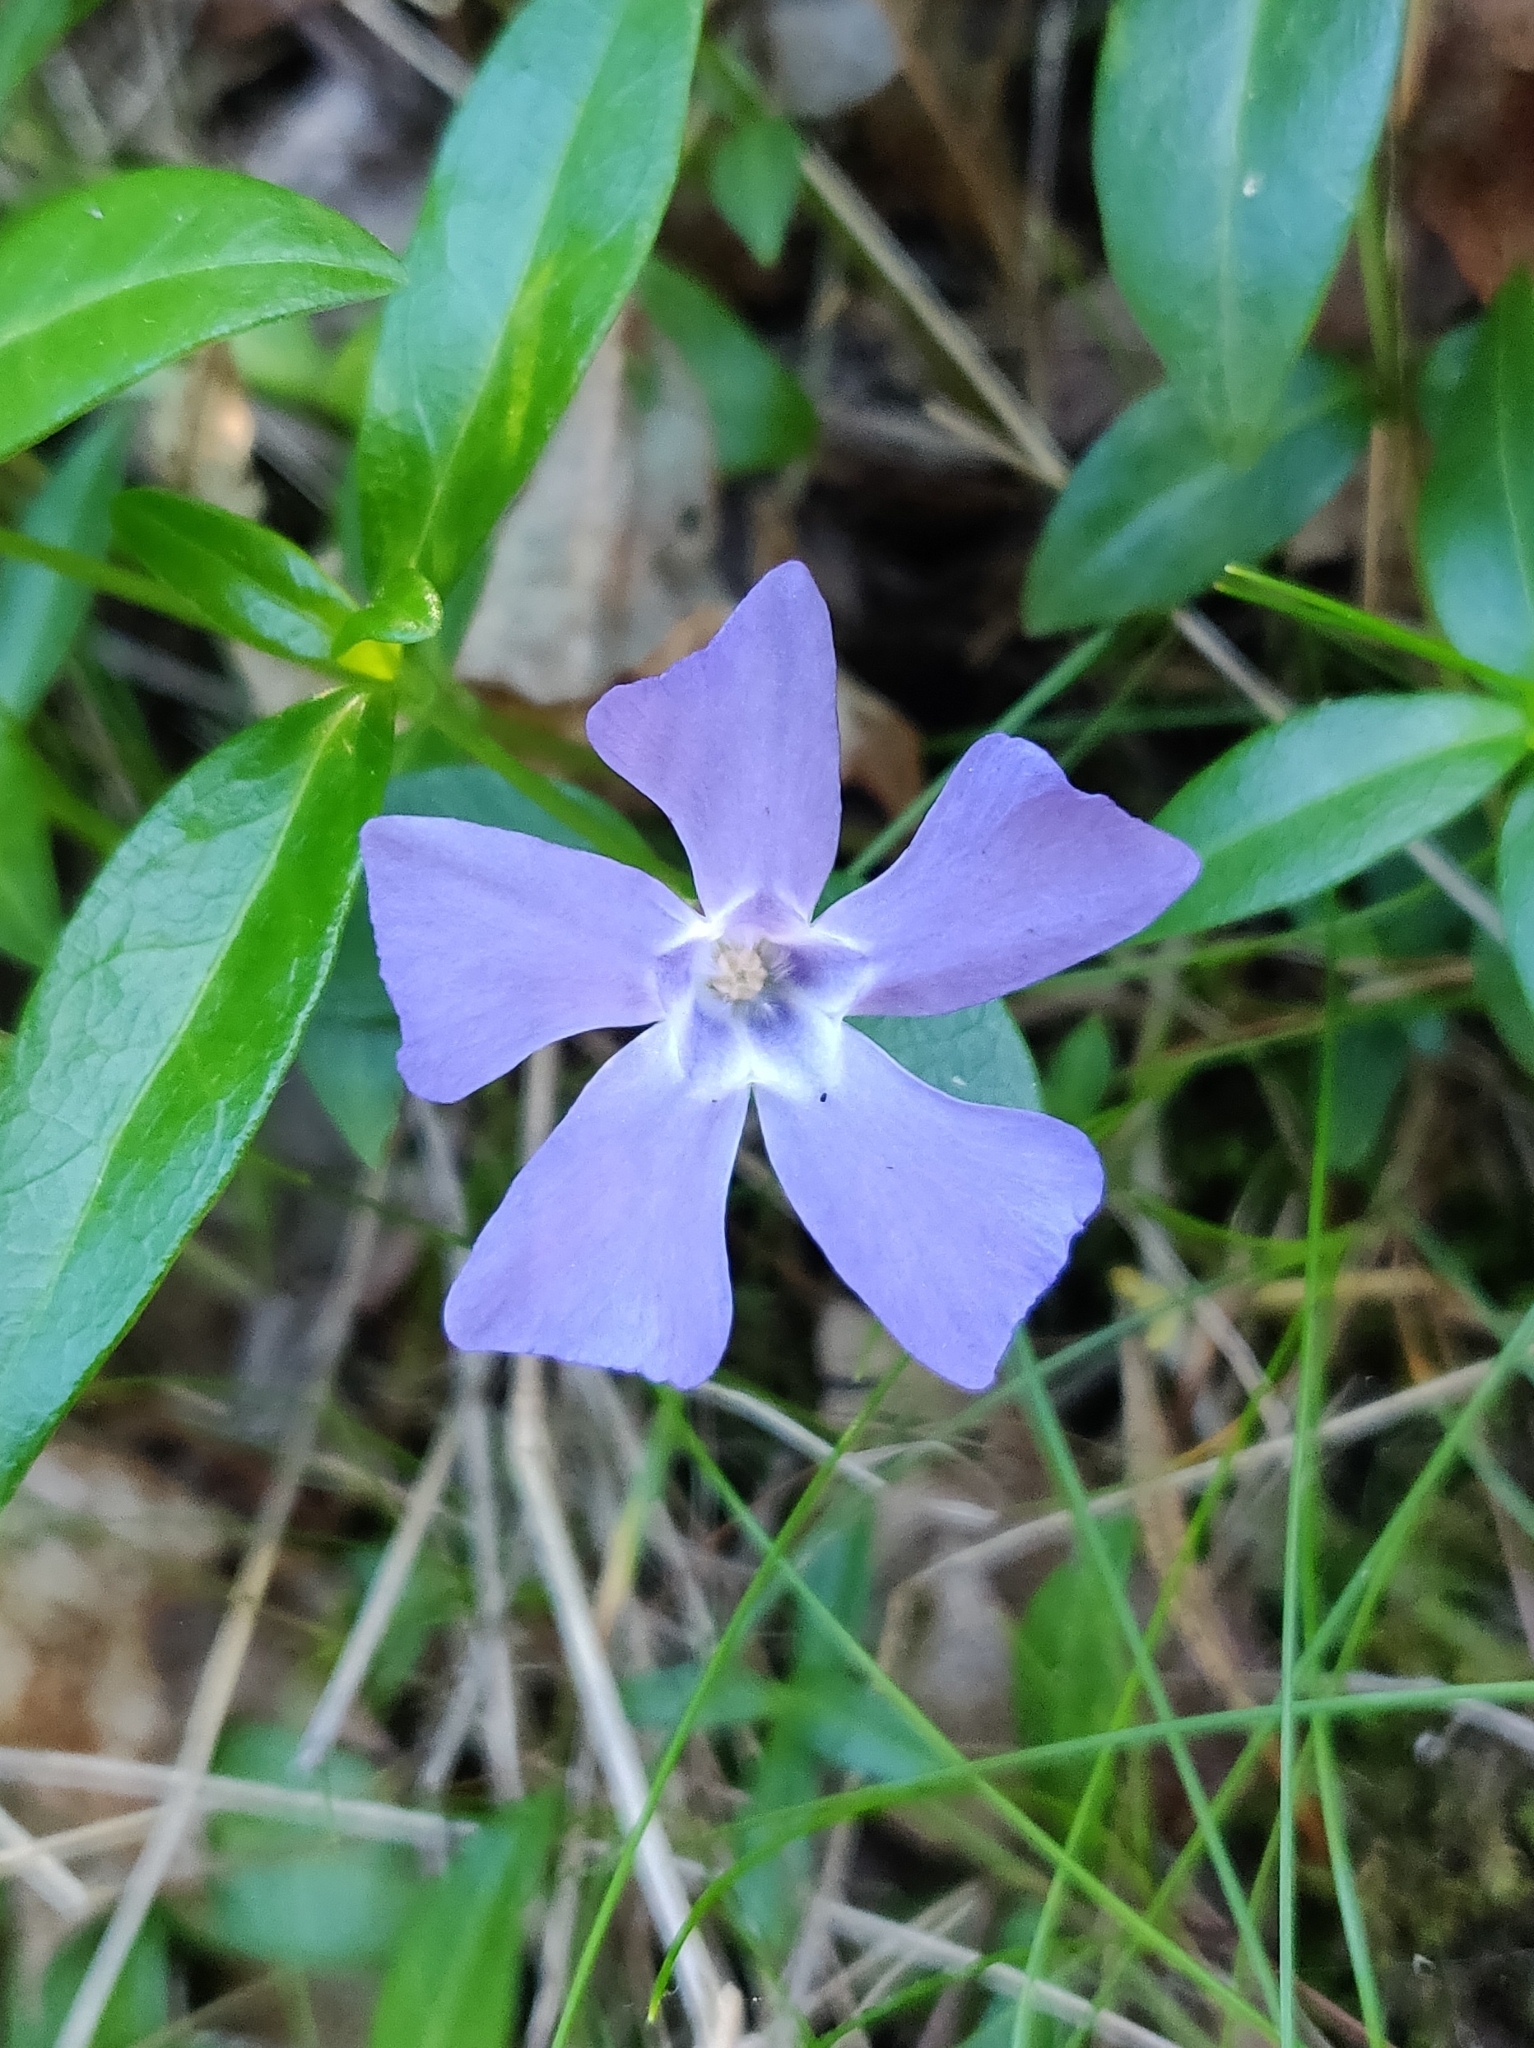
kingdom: Plantae
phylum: Tracheophyta
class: Magnoliopsida
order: Gentianales
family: Apocynaceae
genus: Vinca
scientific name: Vinca minor
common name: Lesser periwinkle
